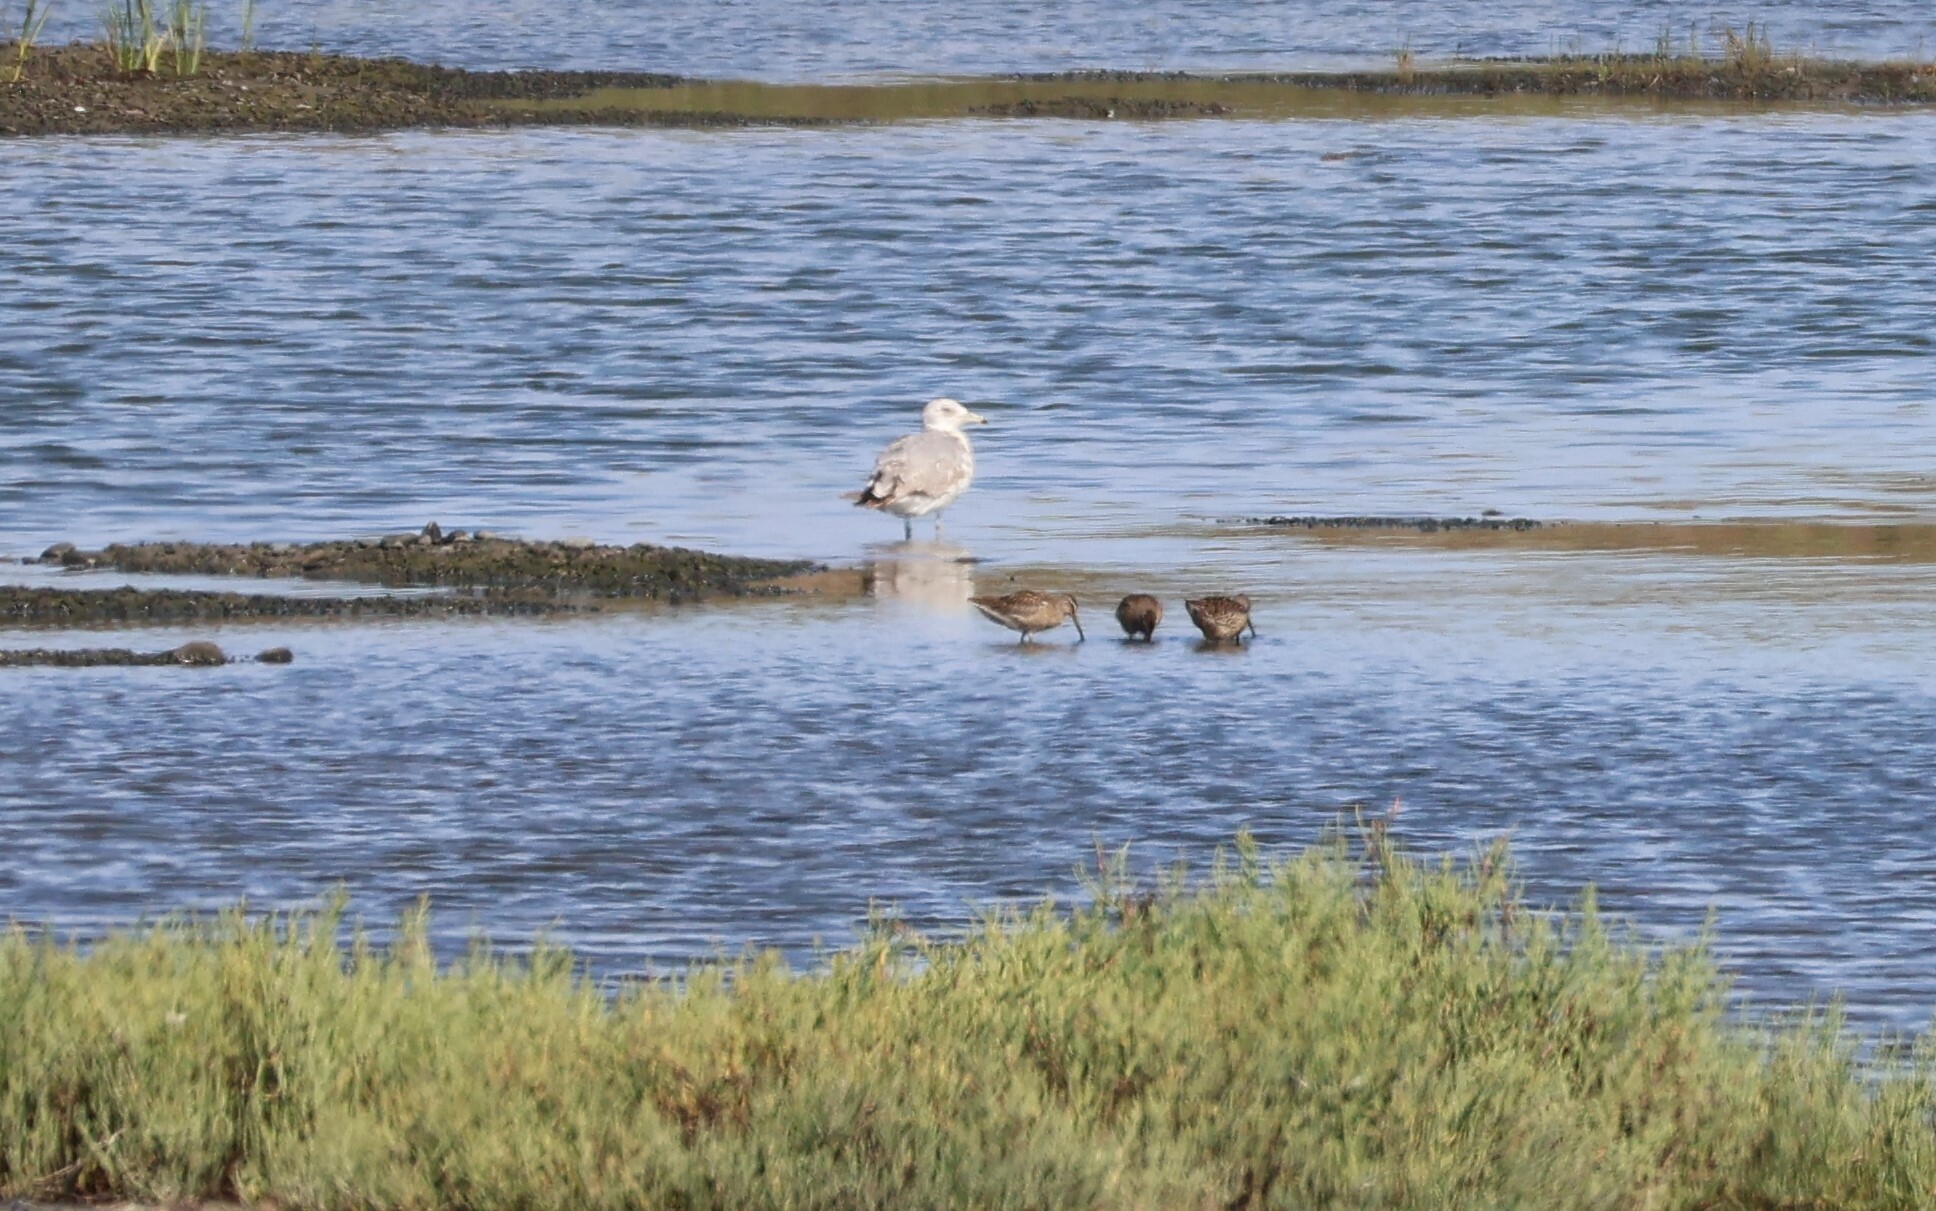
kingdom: Animalia
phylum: Chordata
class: Aves
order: Charadriiformes
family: Laridae
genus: Larus
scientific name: Larus californicus
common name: California gull
